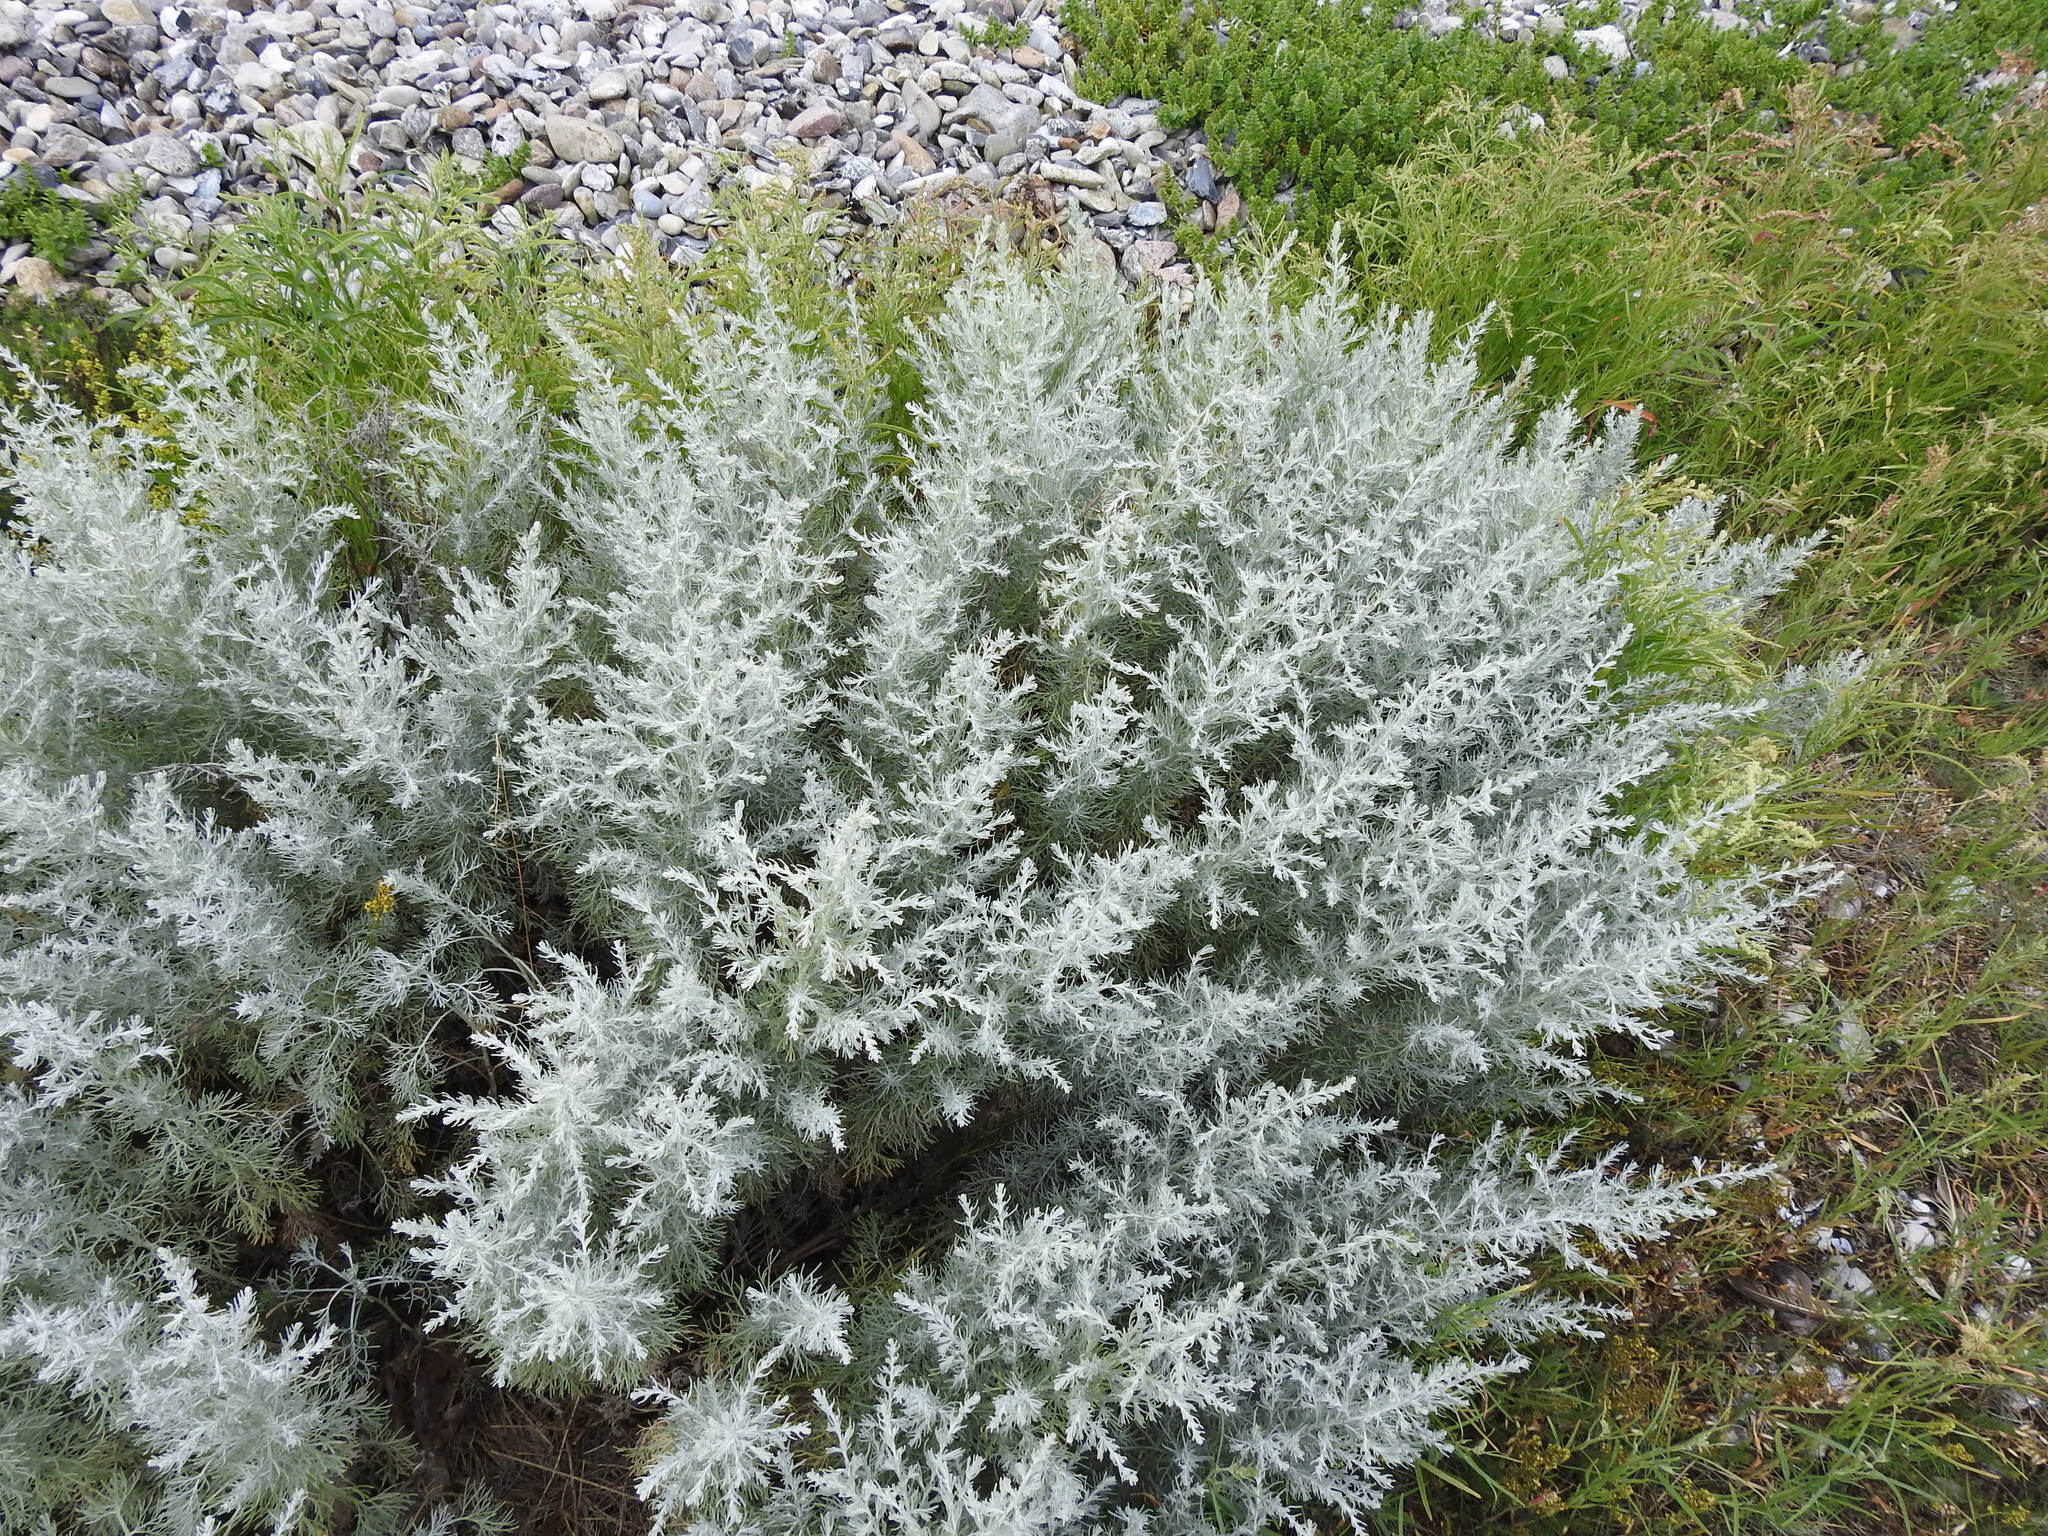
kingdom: Plantae
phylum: Tracheophyta
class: Magnoliopsida
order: Asterales
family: Asteraceae
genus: Artemisia
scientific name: Artemisia maritima
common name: Wormseed
